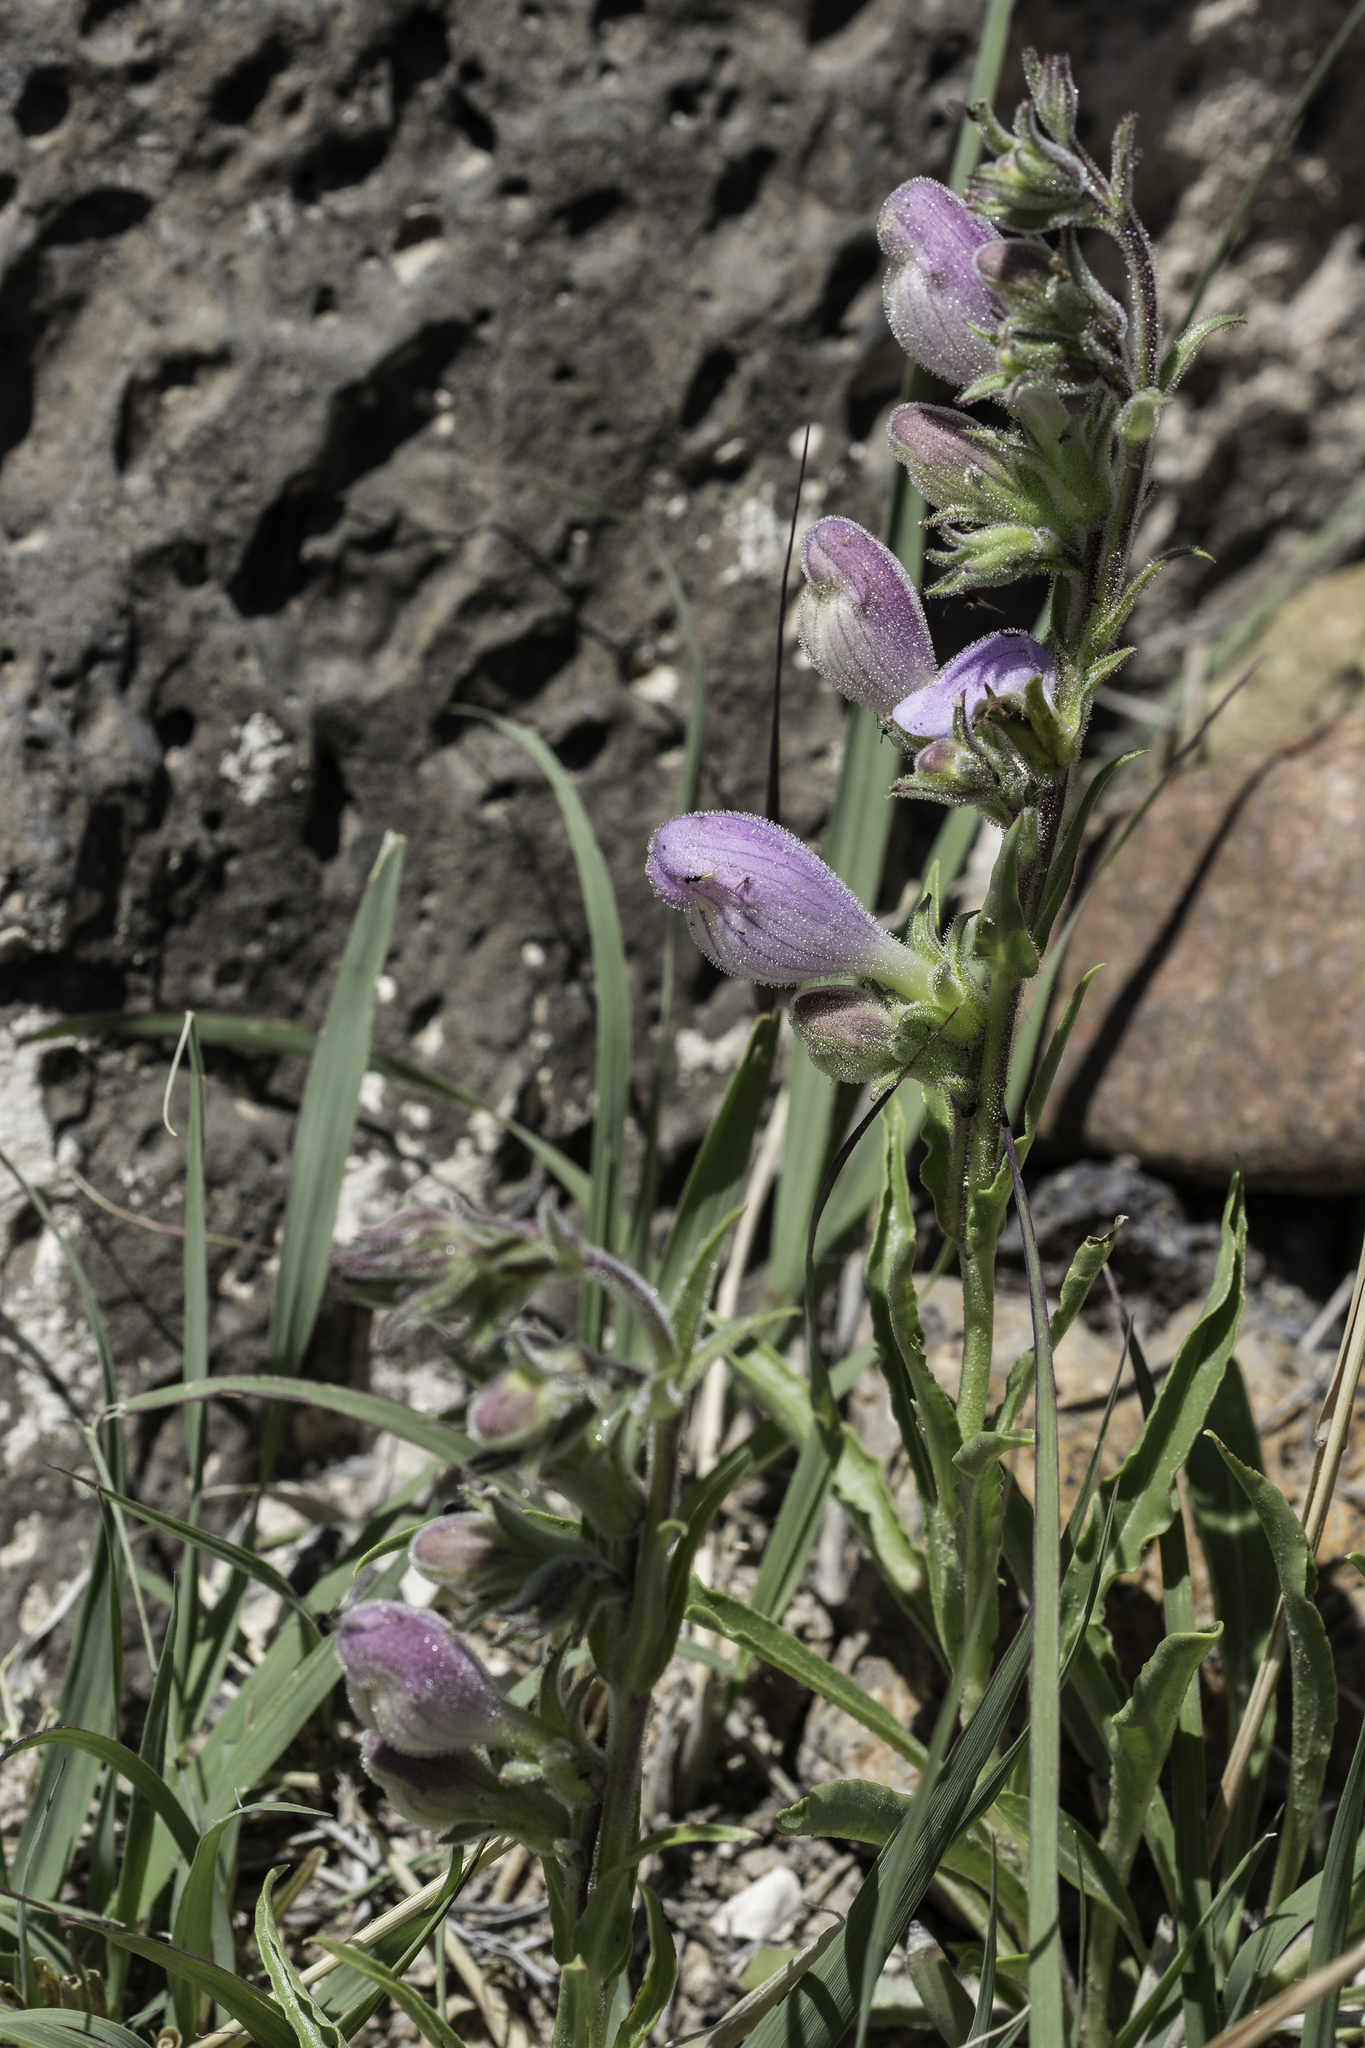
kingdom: Plantae
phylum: Tracheophyta
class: Magnoliopsida
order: Lamiales
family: Plantaginaceae
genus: Penstemon
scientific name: Penstemon jamesii
